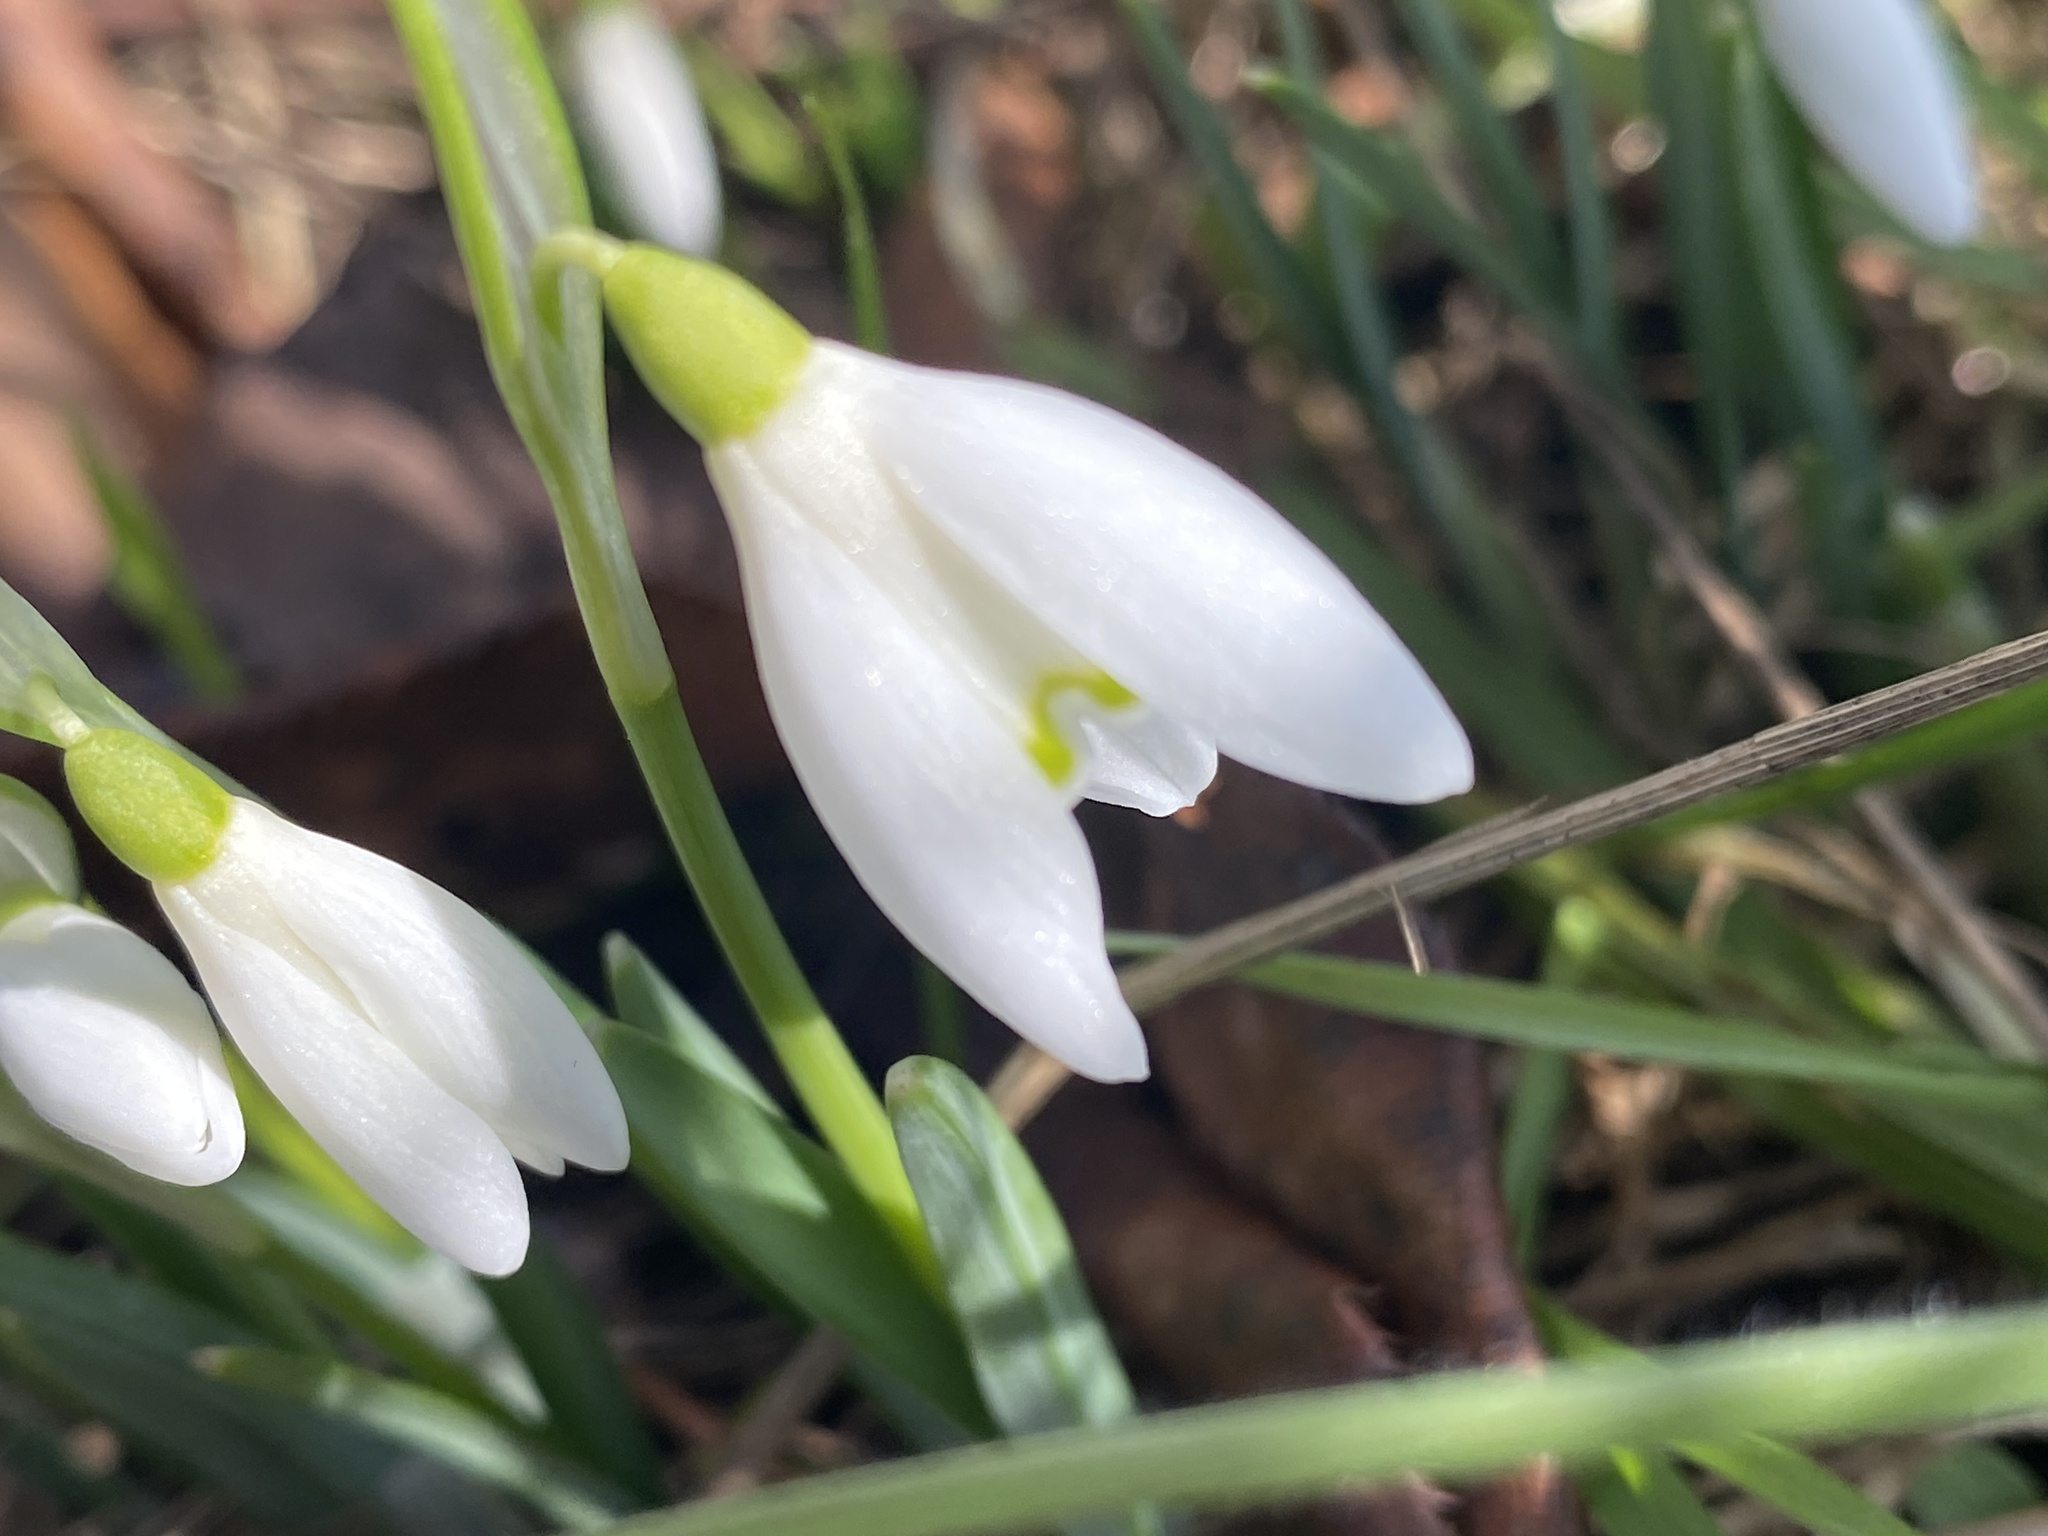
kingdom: Plantae
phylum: Tracheophyta
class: Liliopsida
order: Asparagales
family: Amaryllidaceae
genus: Galanthus
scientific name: Galanthus nivalis
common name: Snowdrop
